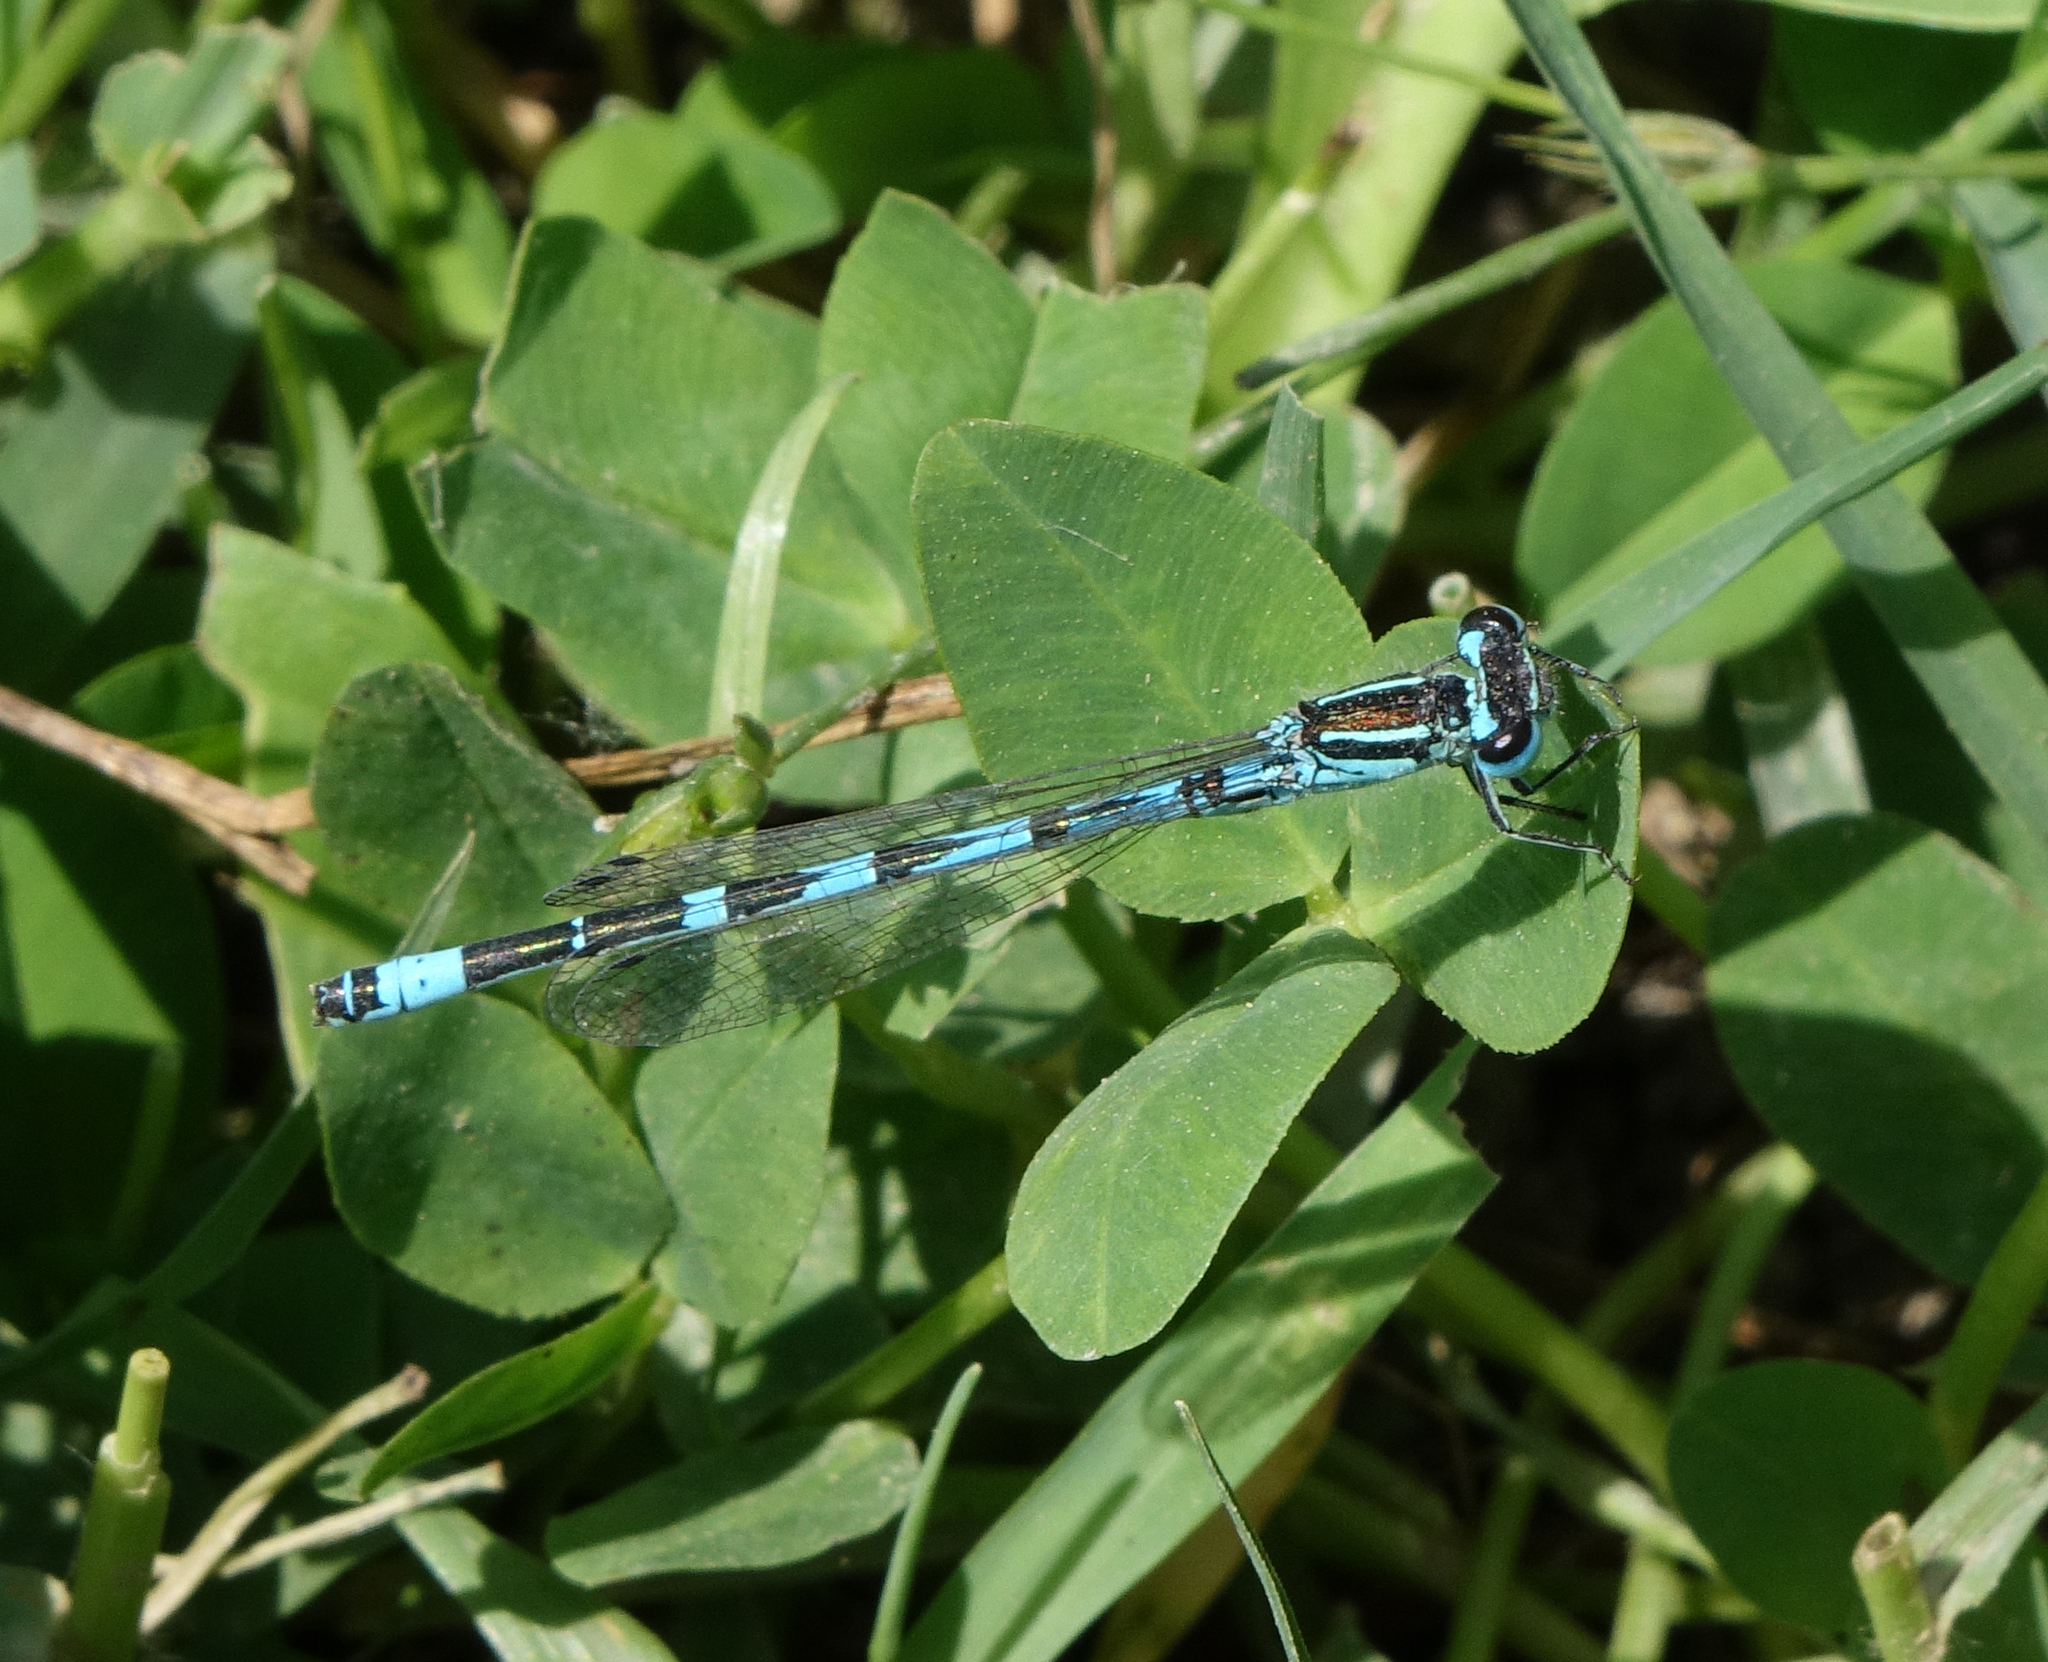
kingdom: Animalia
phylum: Arthropoda
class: Insecta
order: Odonata
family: Coenagrionidae
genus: Coenagrion
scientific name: Coenagrion ornatum
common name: Ornate bluet
